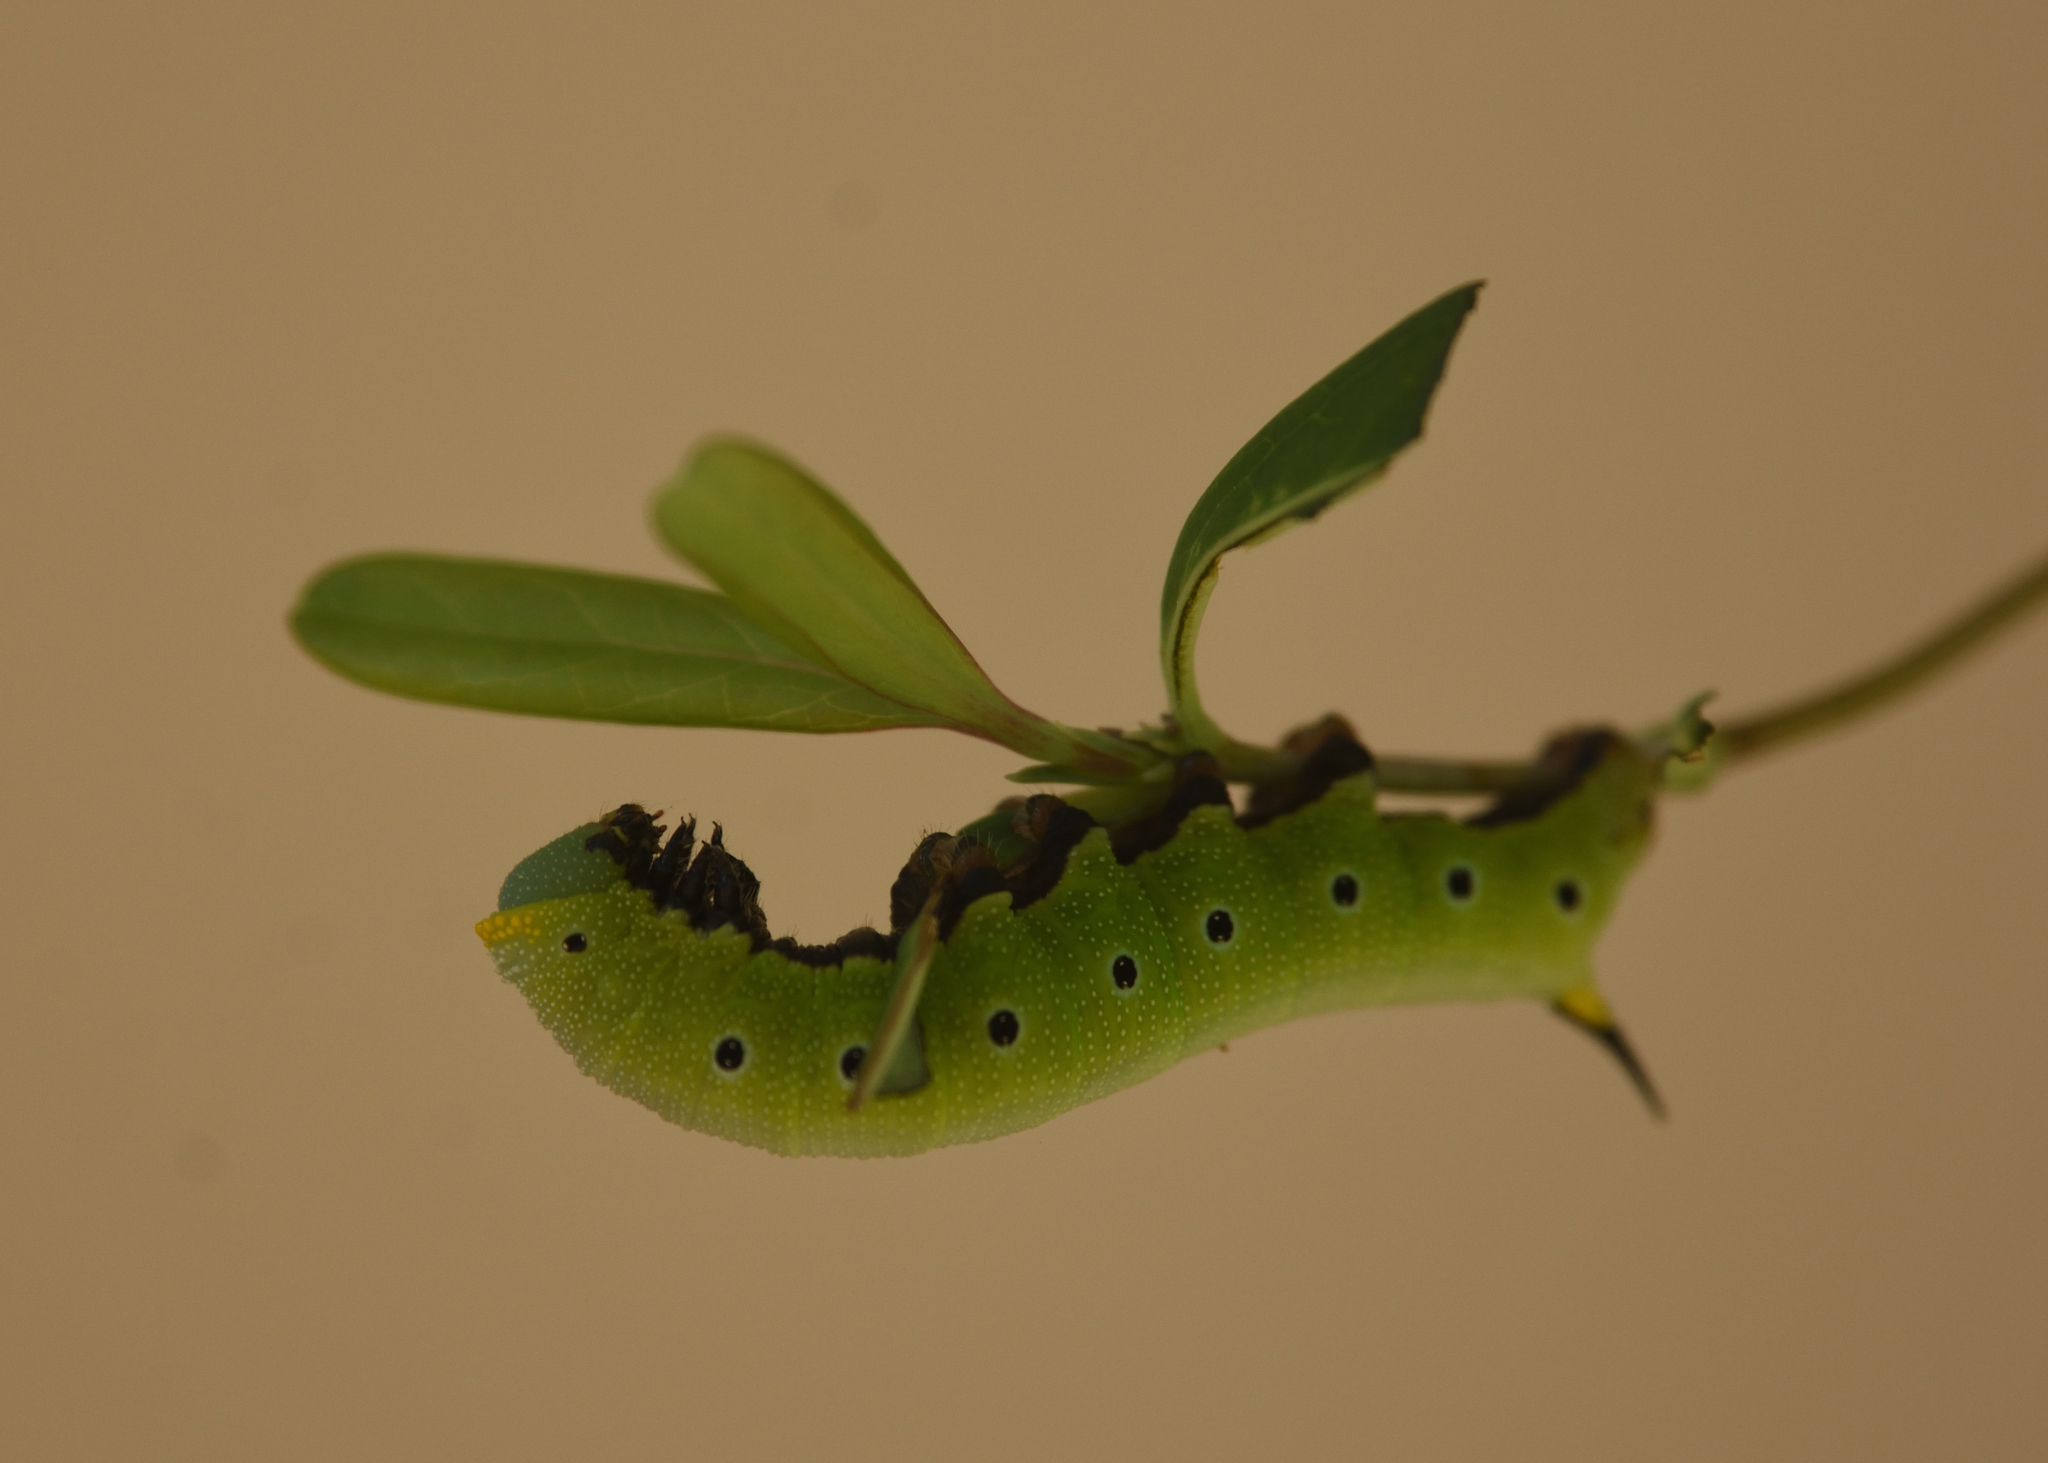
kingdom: Animalia
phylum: Arthropoda
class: Insecta
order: Lepidoptera
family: Sphingidae
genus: Hemaris
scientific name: Hemaris diffinis
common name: Bumblebee moth
